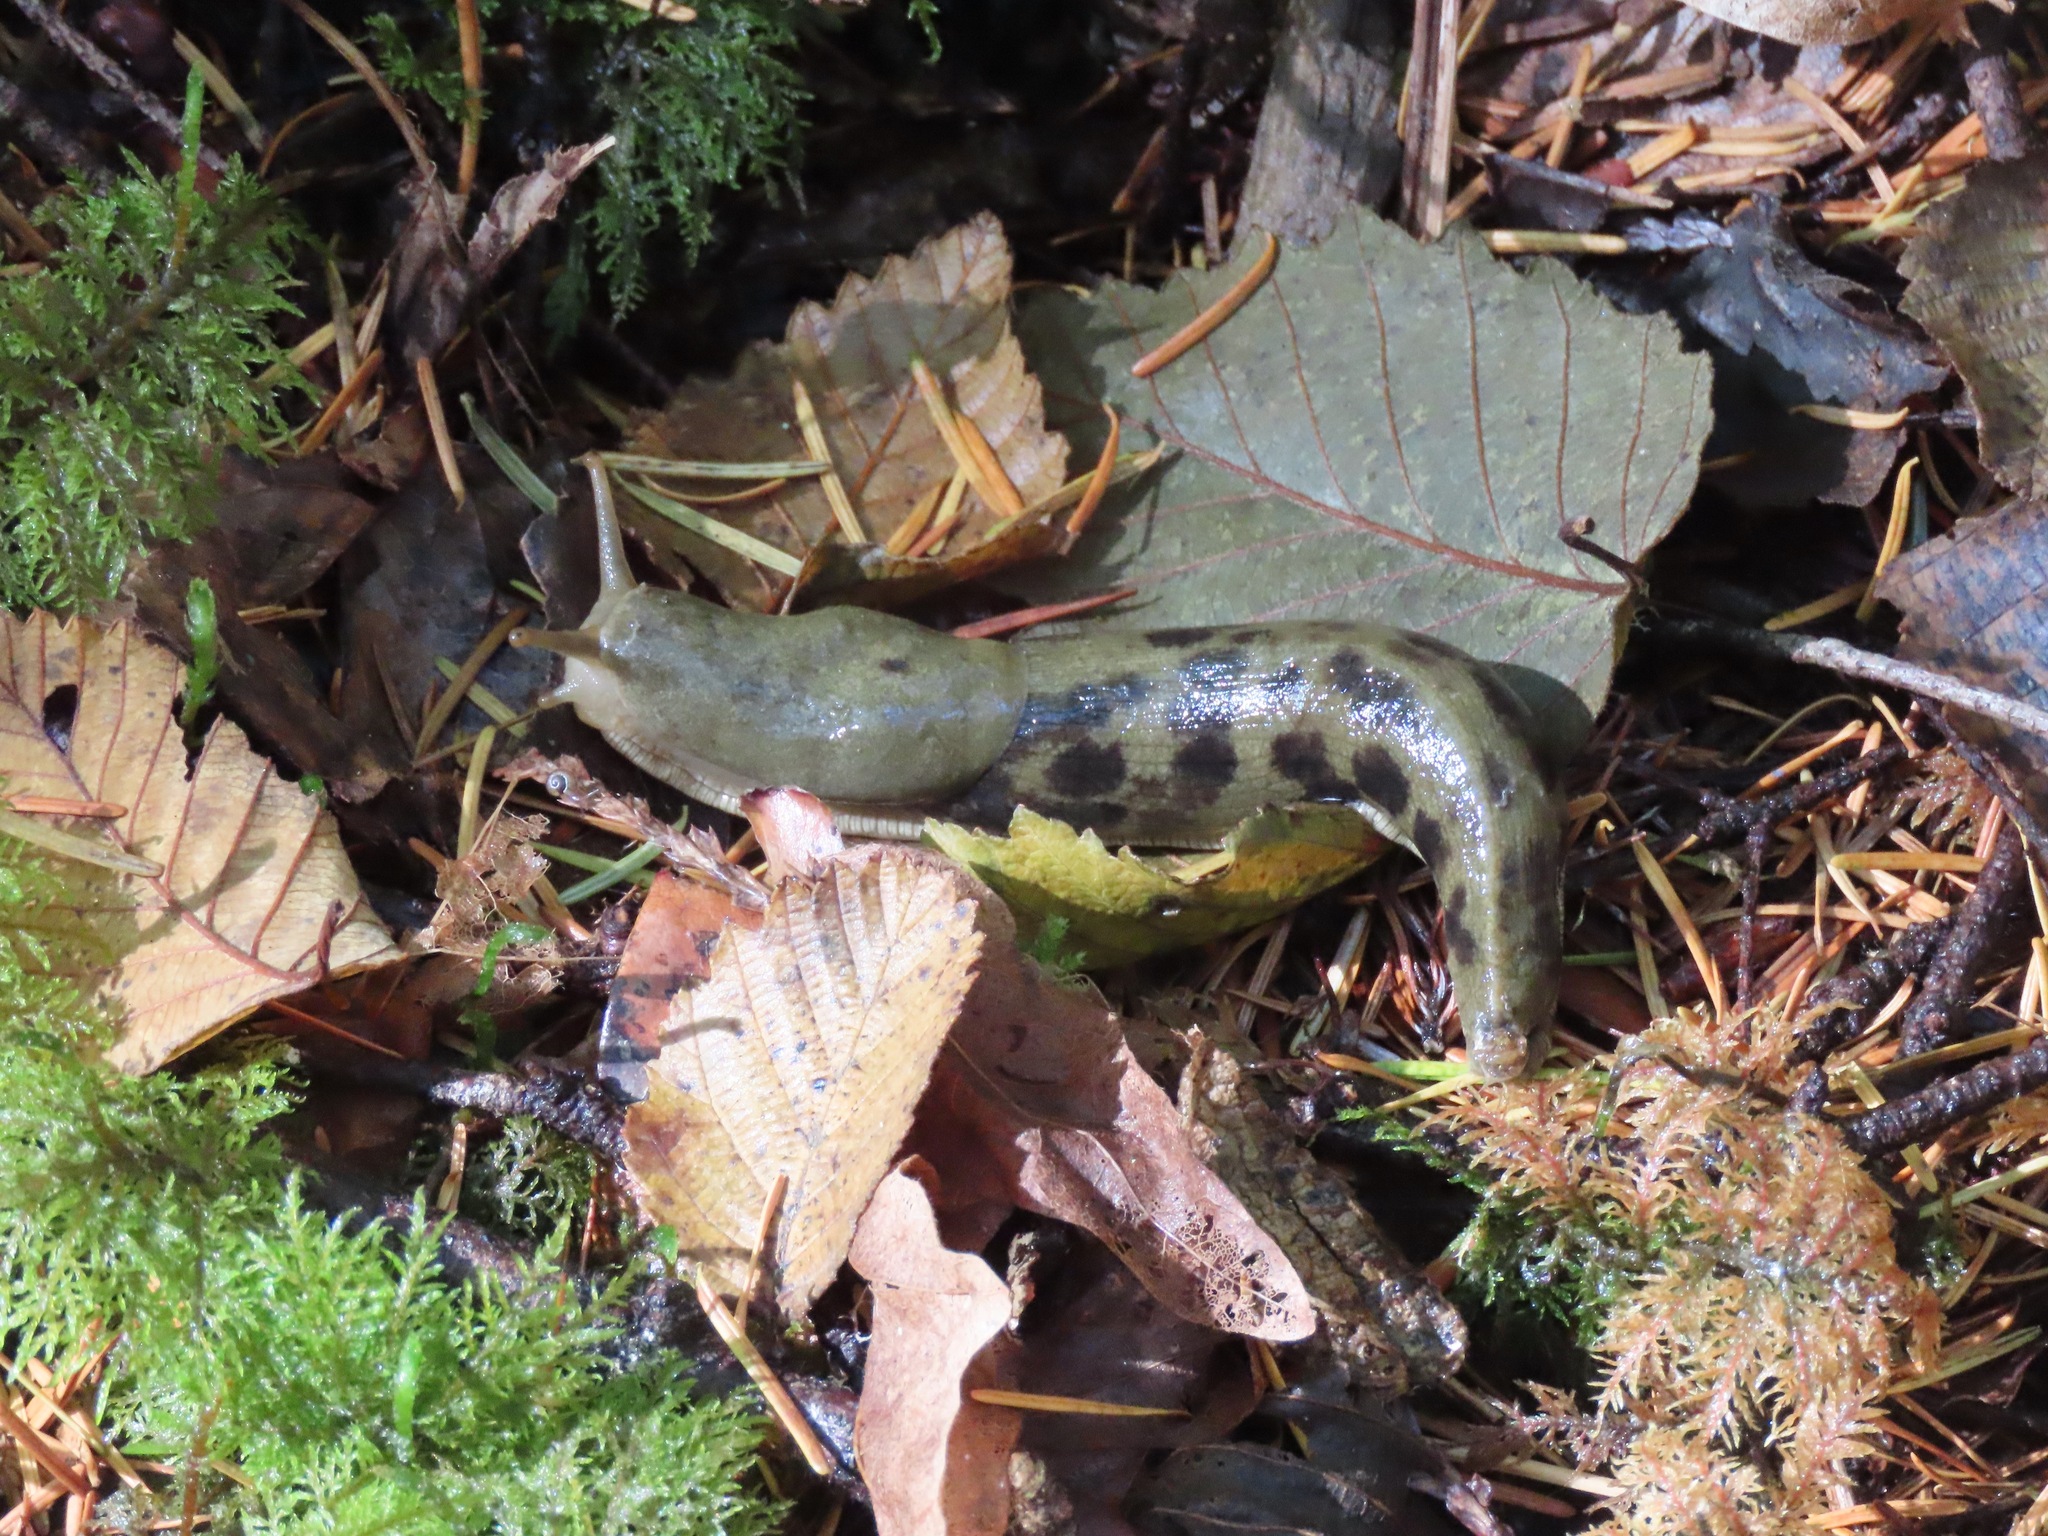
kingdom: Animalia
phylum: Mollusca
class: Gastropoda
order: Stylommatophora
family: Ariolimacidae
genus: Ariolimax
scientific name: Ariolimax columbianus
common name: Pacific banana slug
